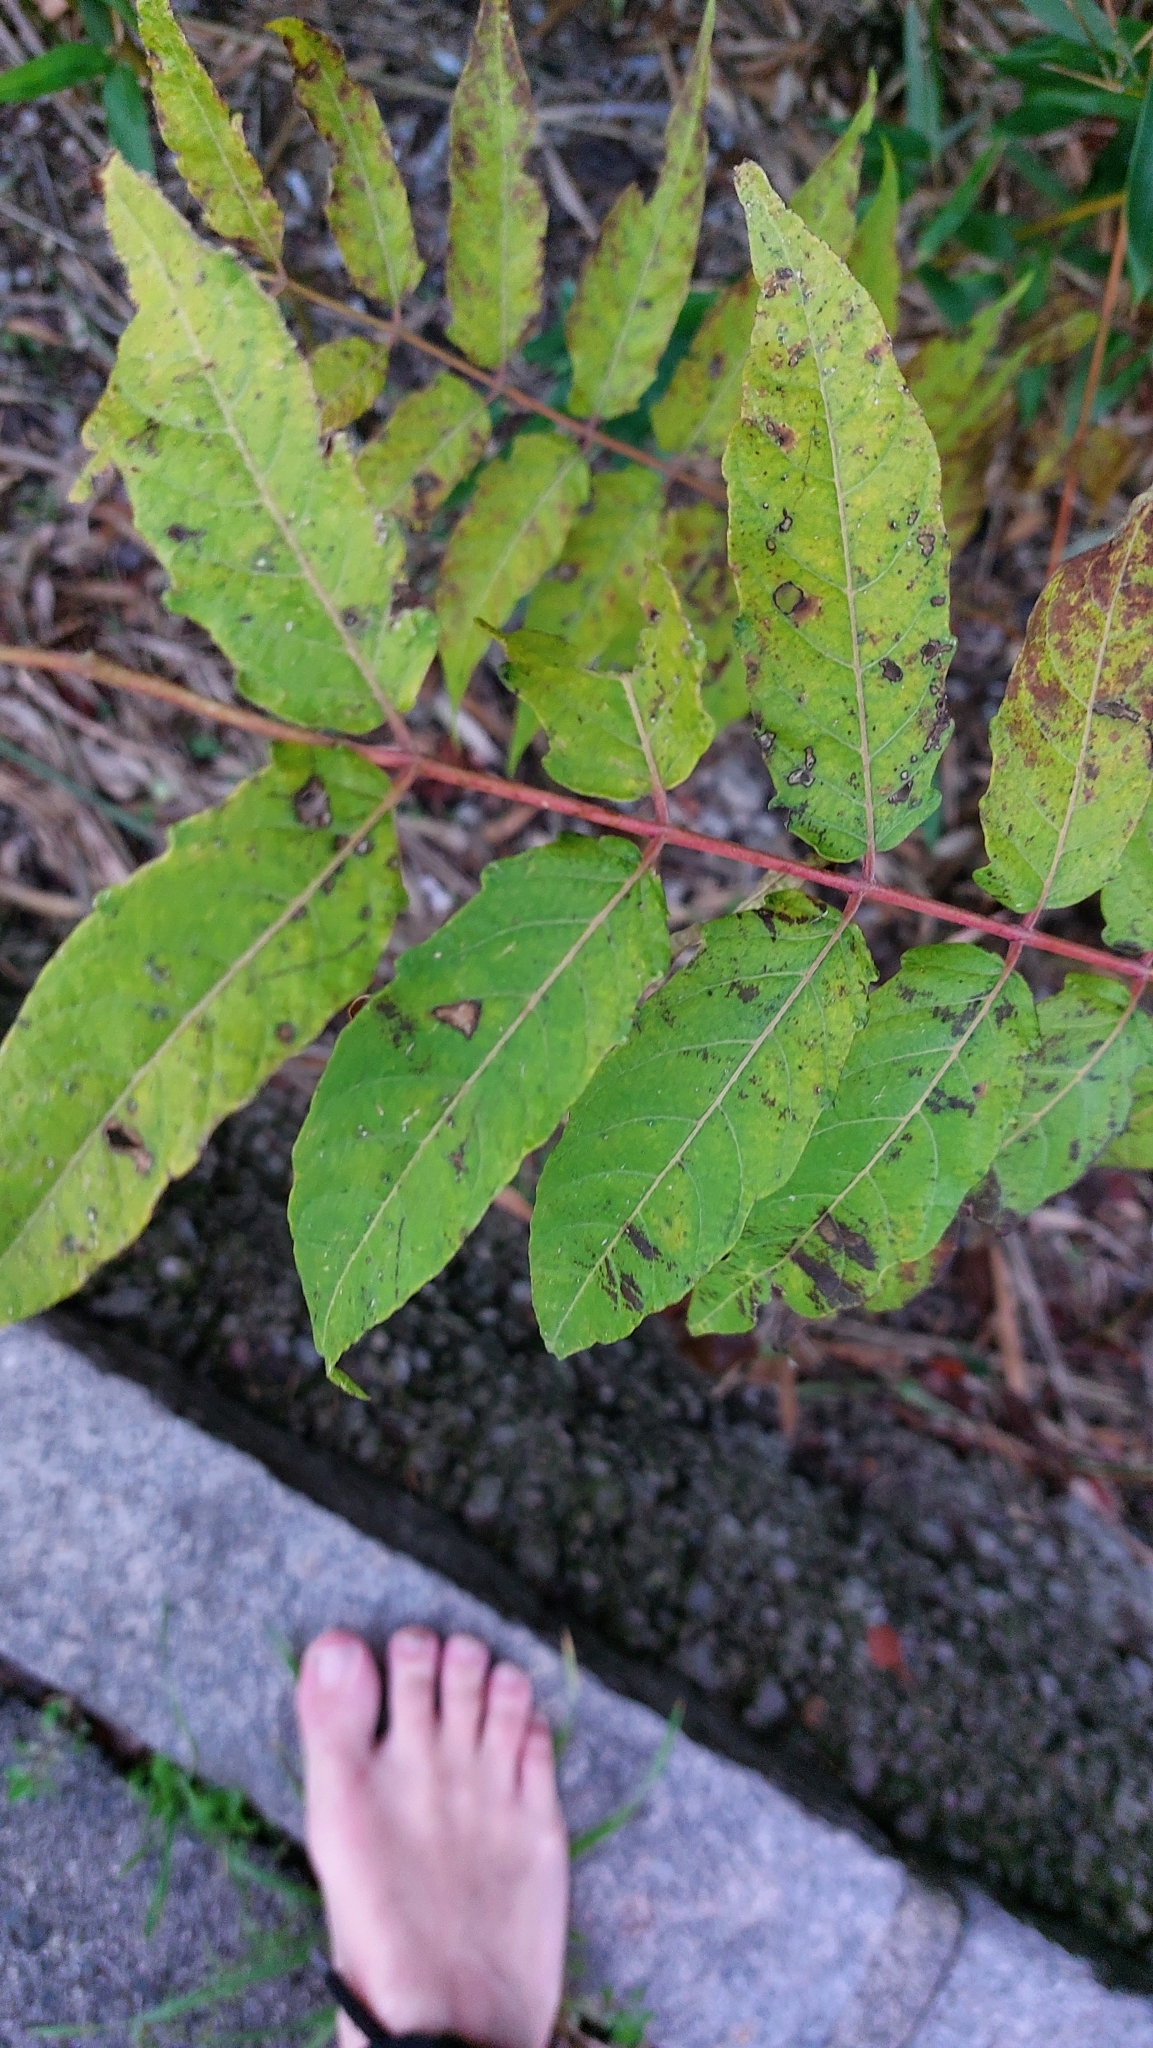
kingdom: Plantae
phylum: Tracheophyta
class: Magnoliopsida
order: Sapindales
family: Simaroubaceae
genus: Ailanthus
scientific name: Ailanthus altissima
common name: Tree-of-heaven
